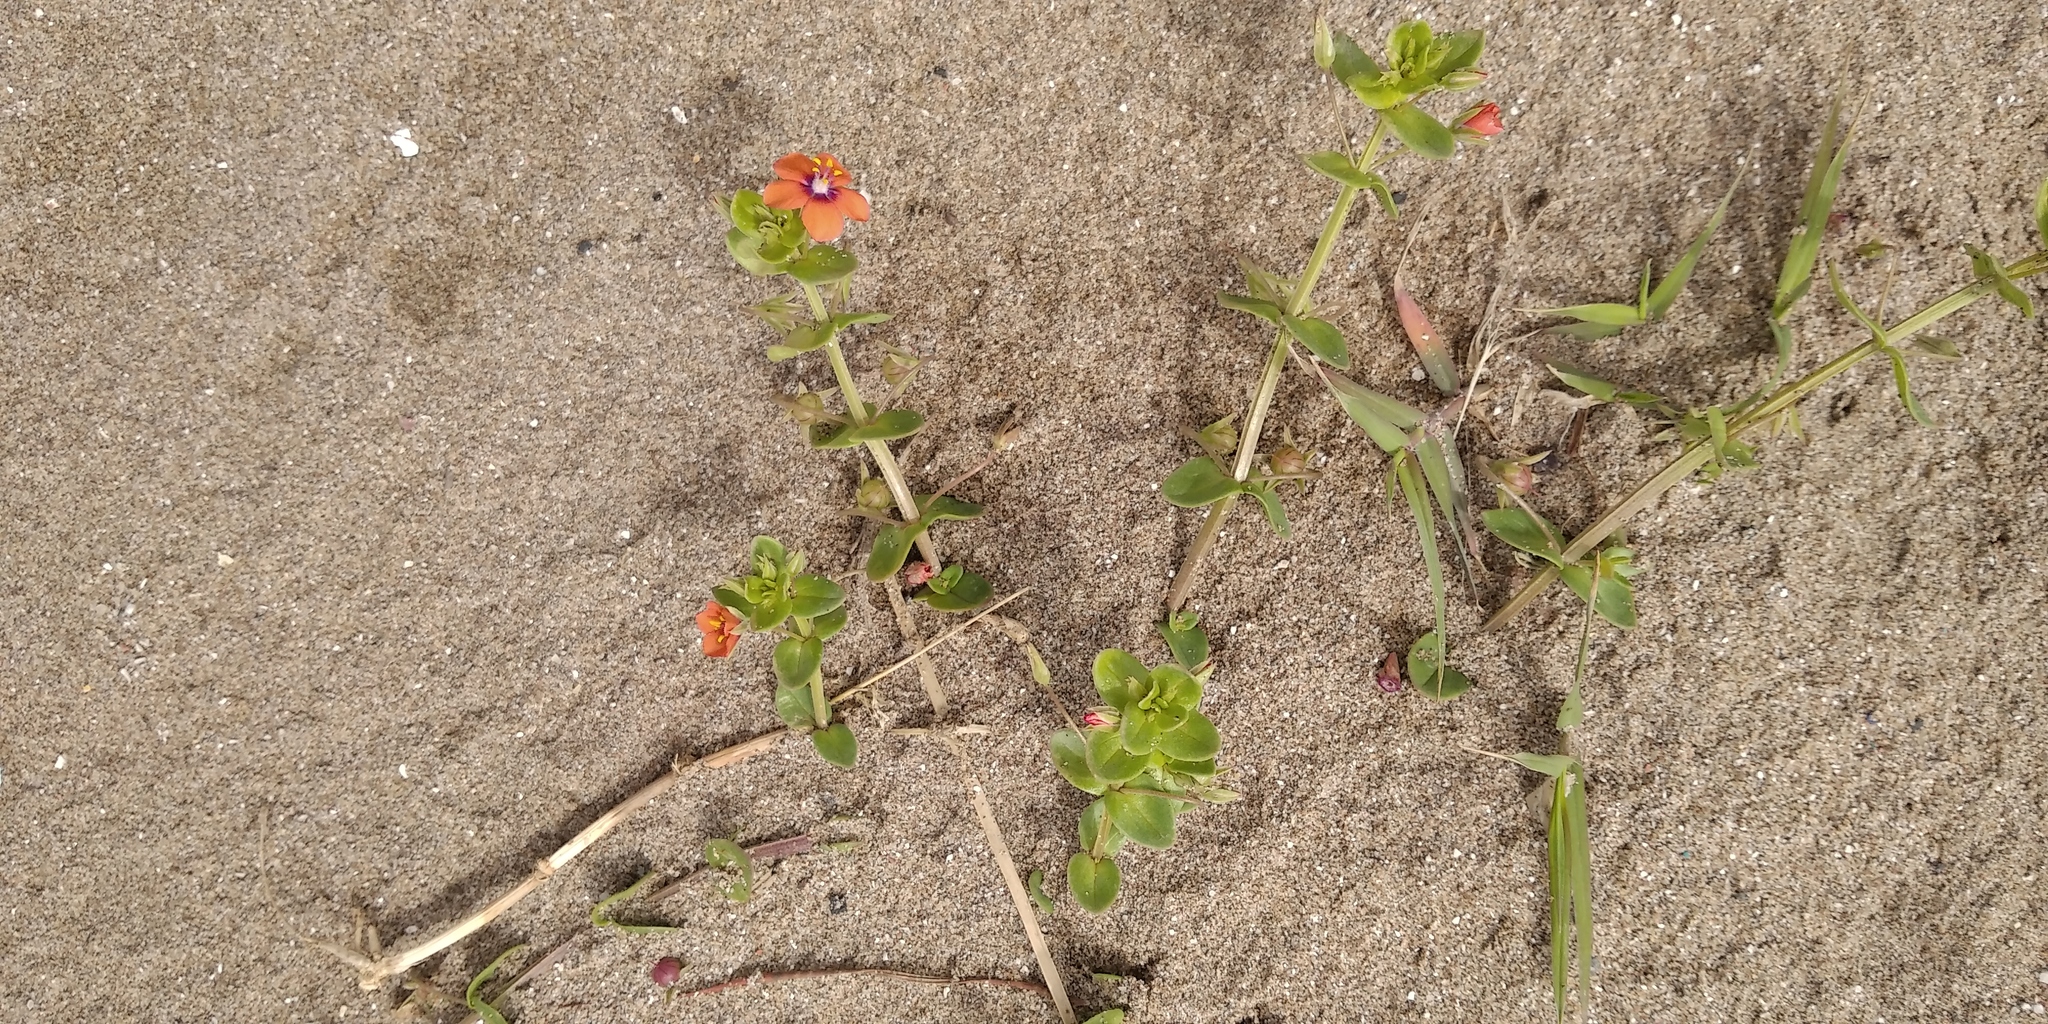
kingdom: Plantae
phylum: Tracheophyta
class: Magnoliopsida
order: Ericales
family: Primulaceae
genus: Lysimachia
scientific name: Lysimachia arvensis
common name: Scarlet pimpernel
